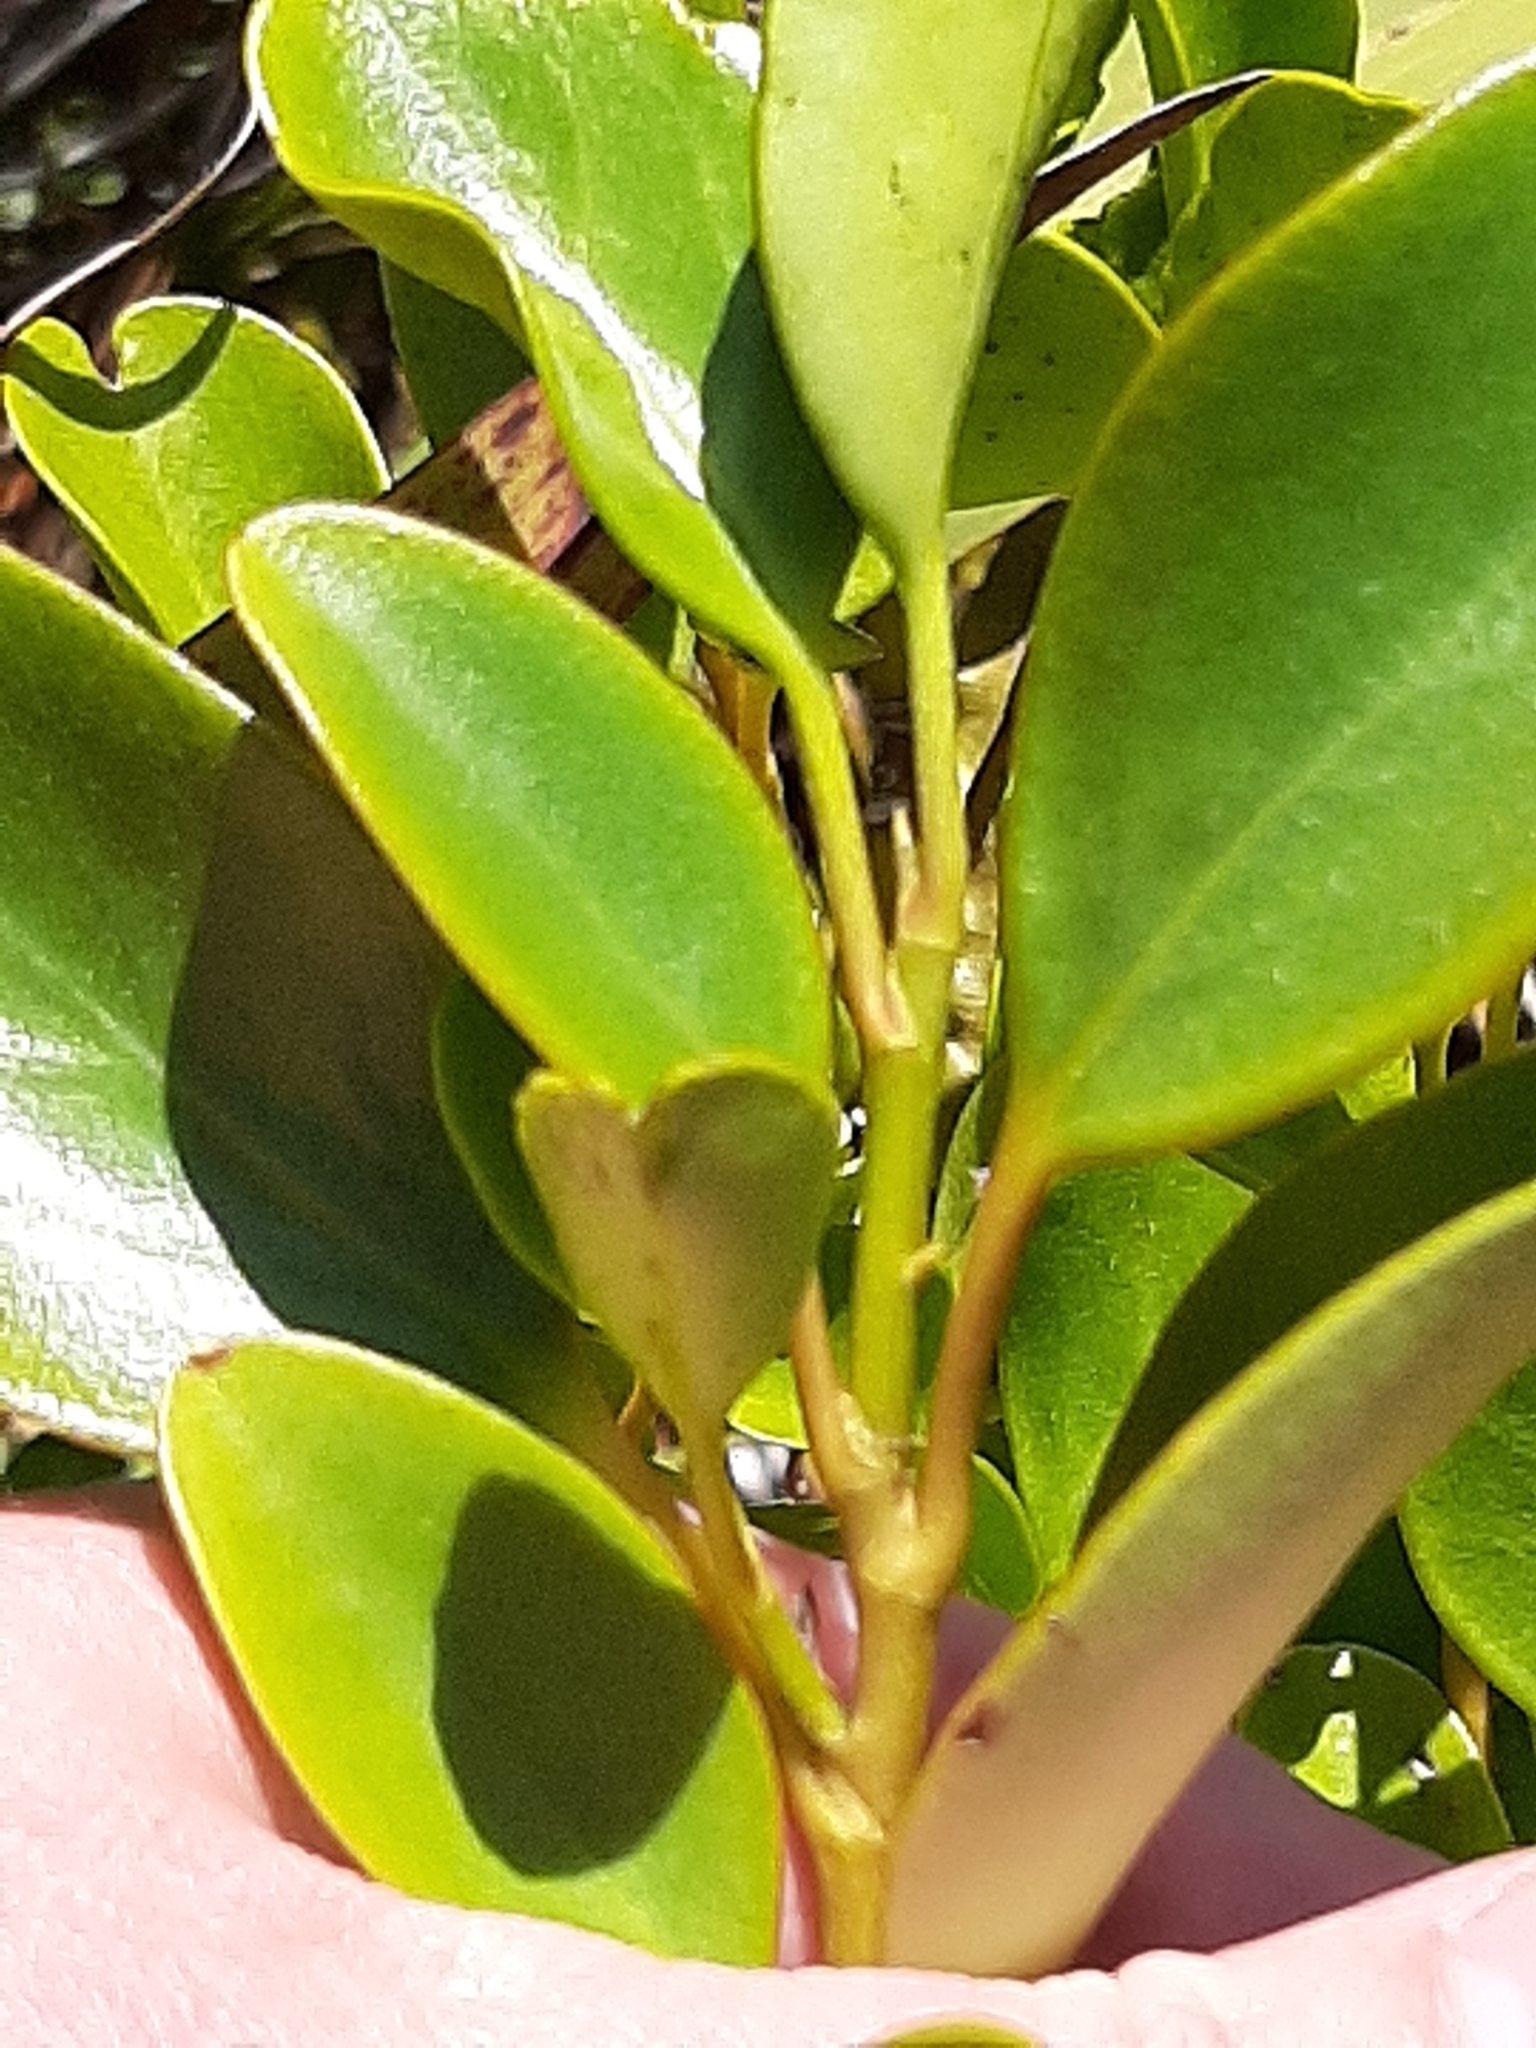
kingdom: Plantae
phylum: Tracheophyta
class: Magnoliopsida
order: Apiales
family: Griseliniaceae
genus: Griselinia
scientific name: Griselinia littoralis
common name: New zealand broadleaf
